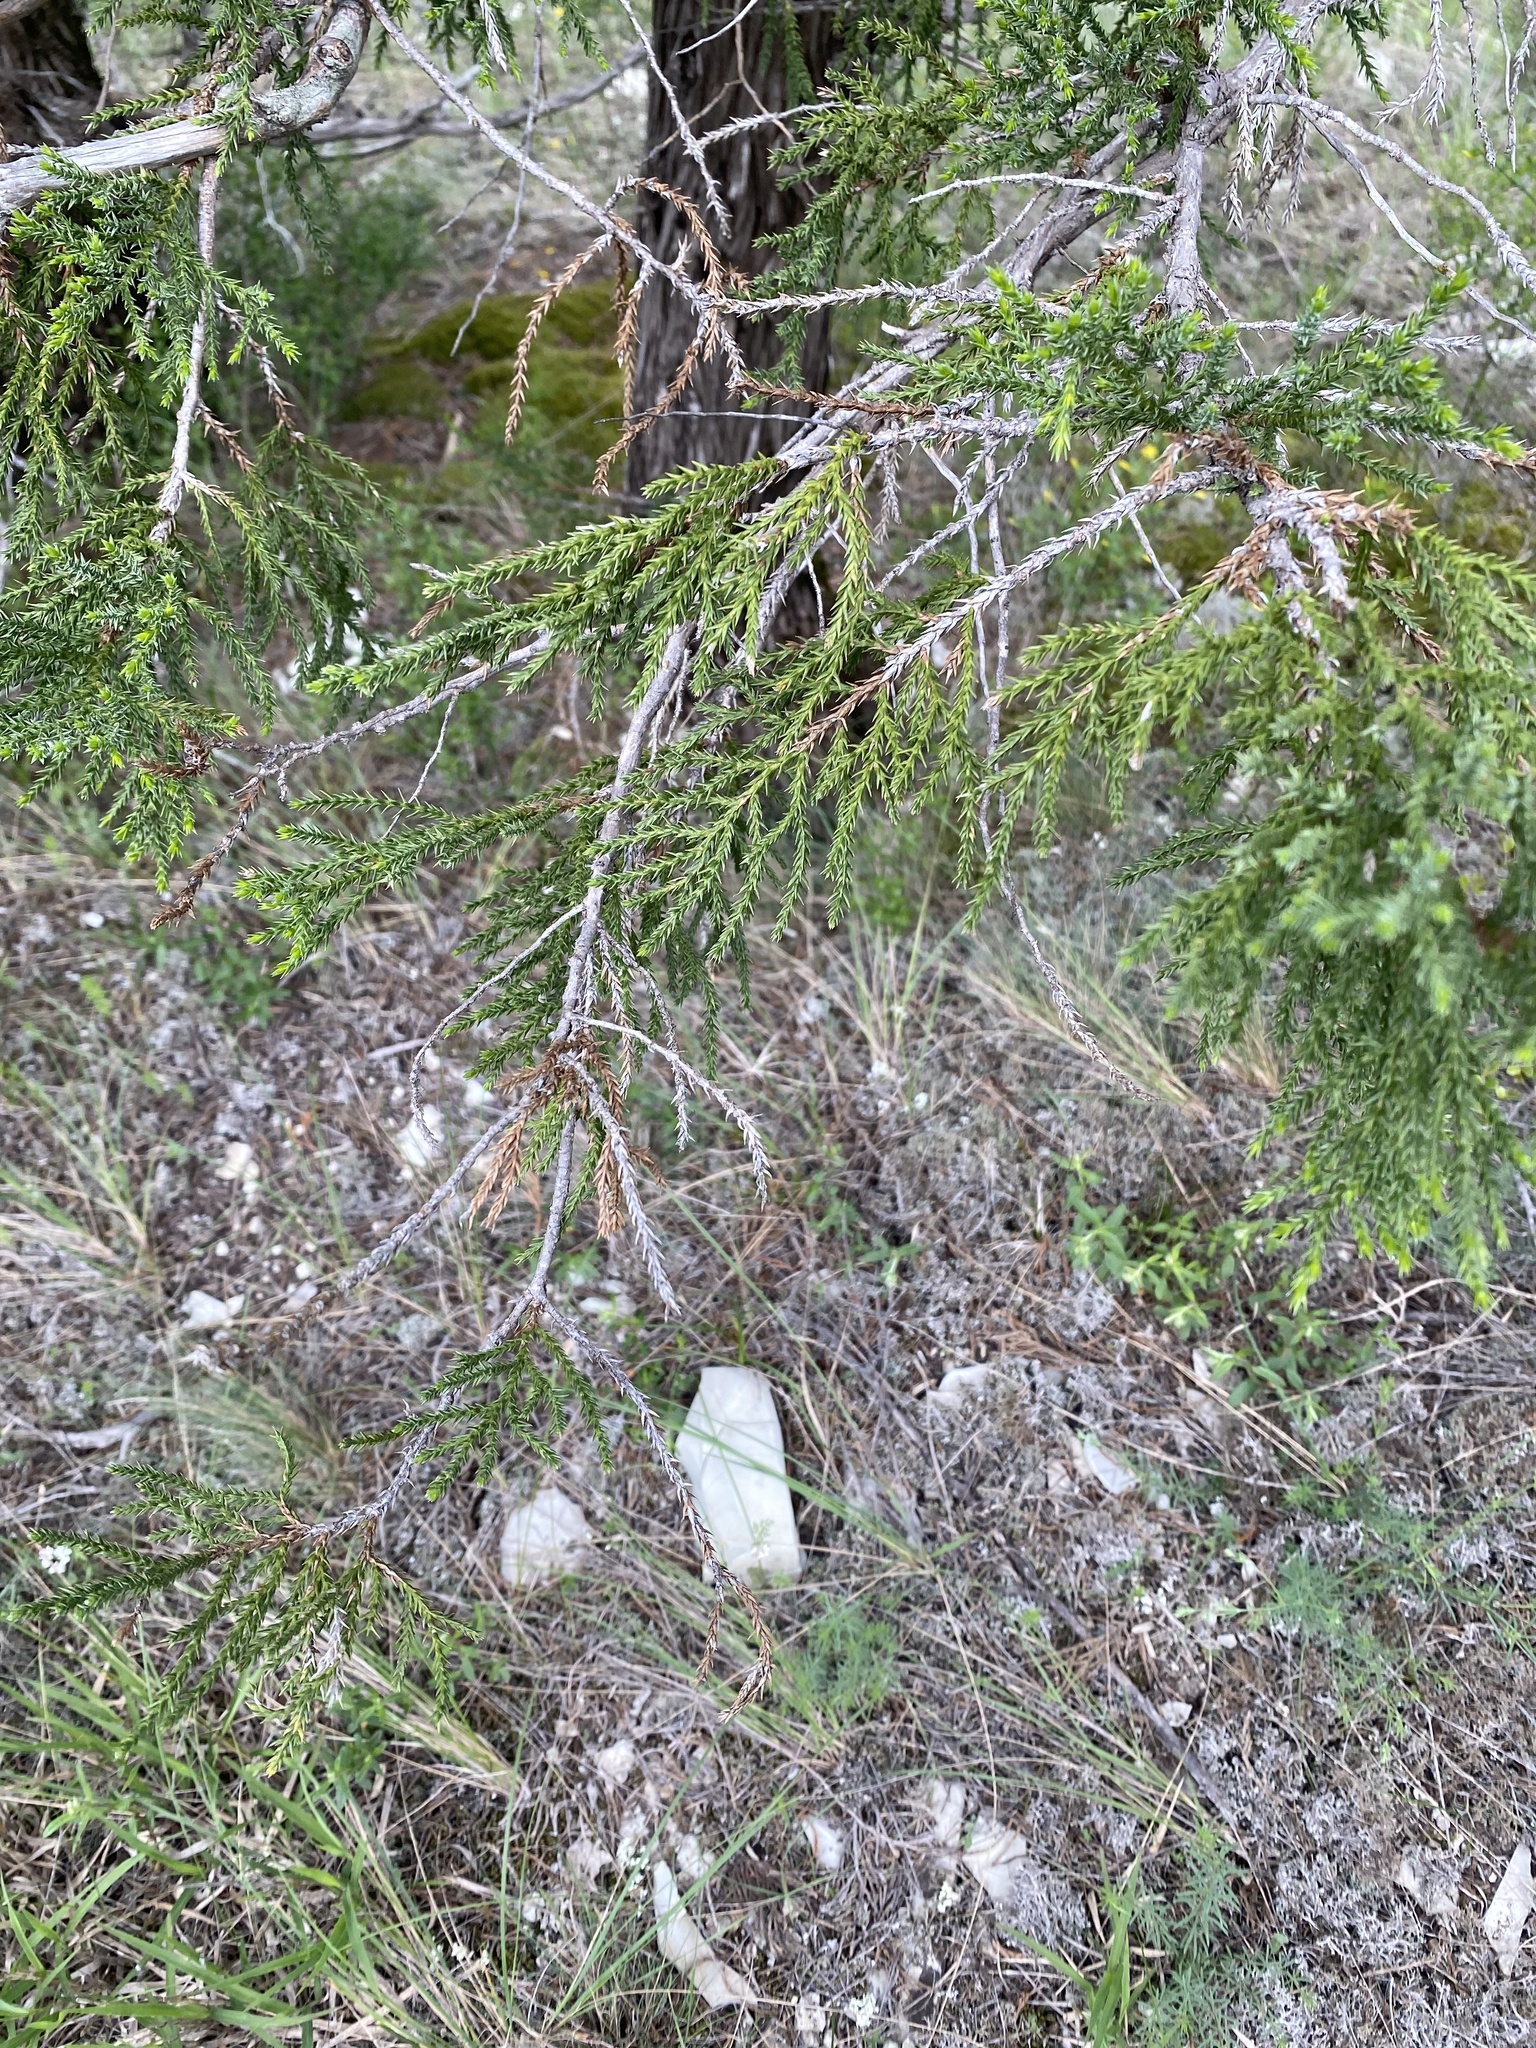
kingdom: Plantae
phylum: Tracheophyta
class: Pinopsida
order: Pinales
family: Cupressaceae
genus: Juniperus
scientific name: Juniperus foetidissima
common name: Stinking juniper
